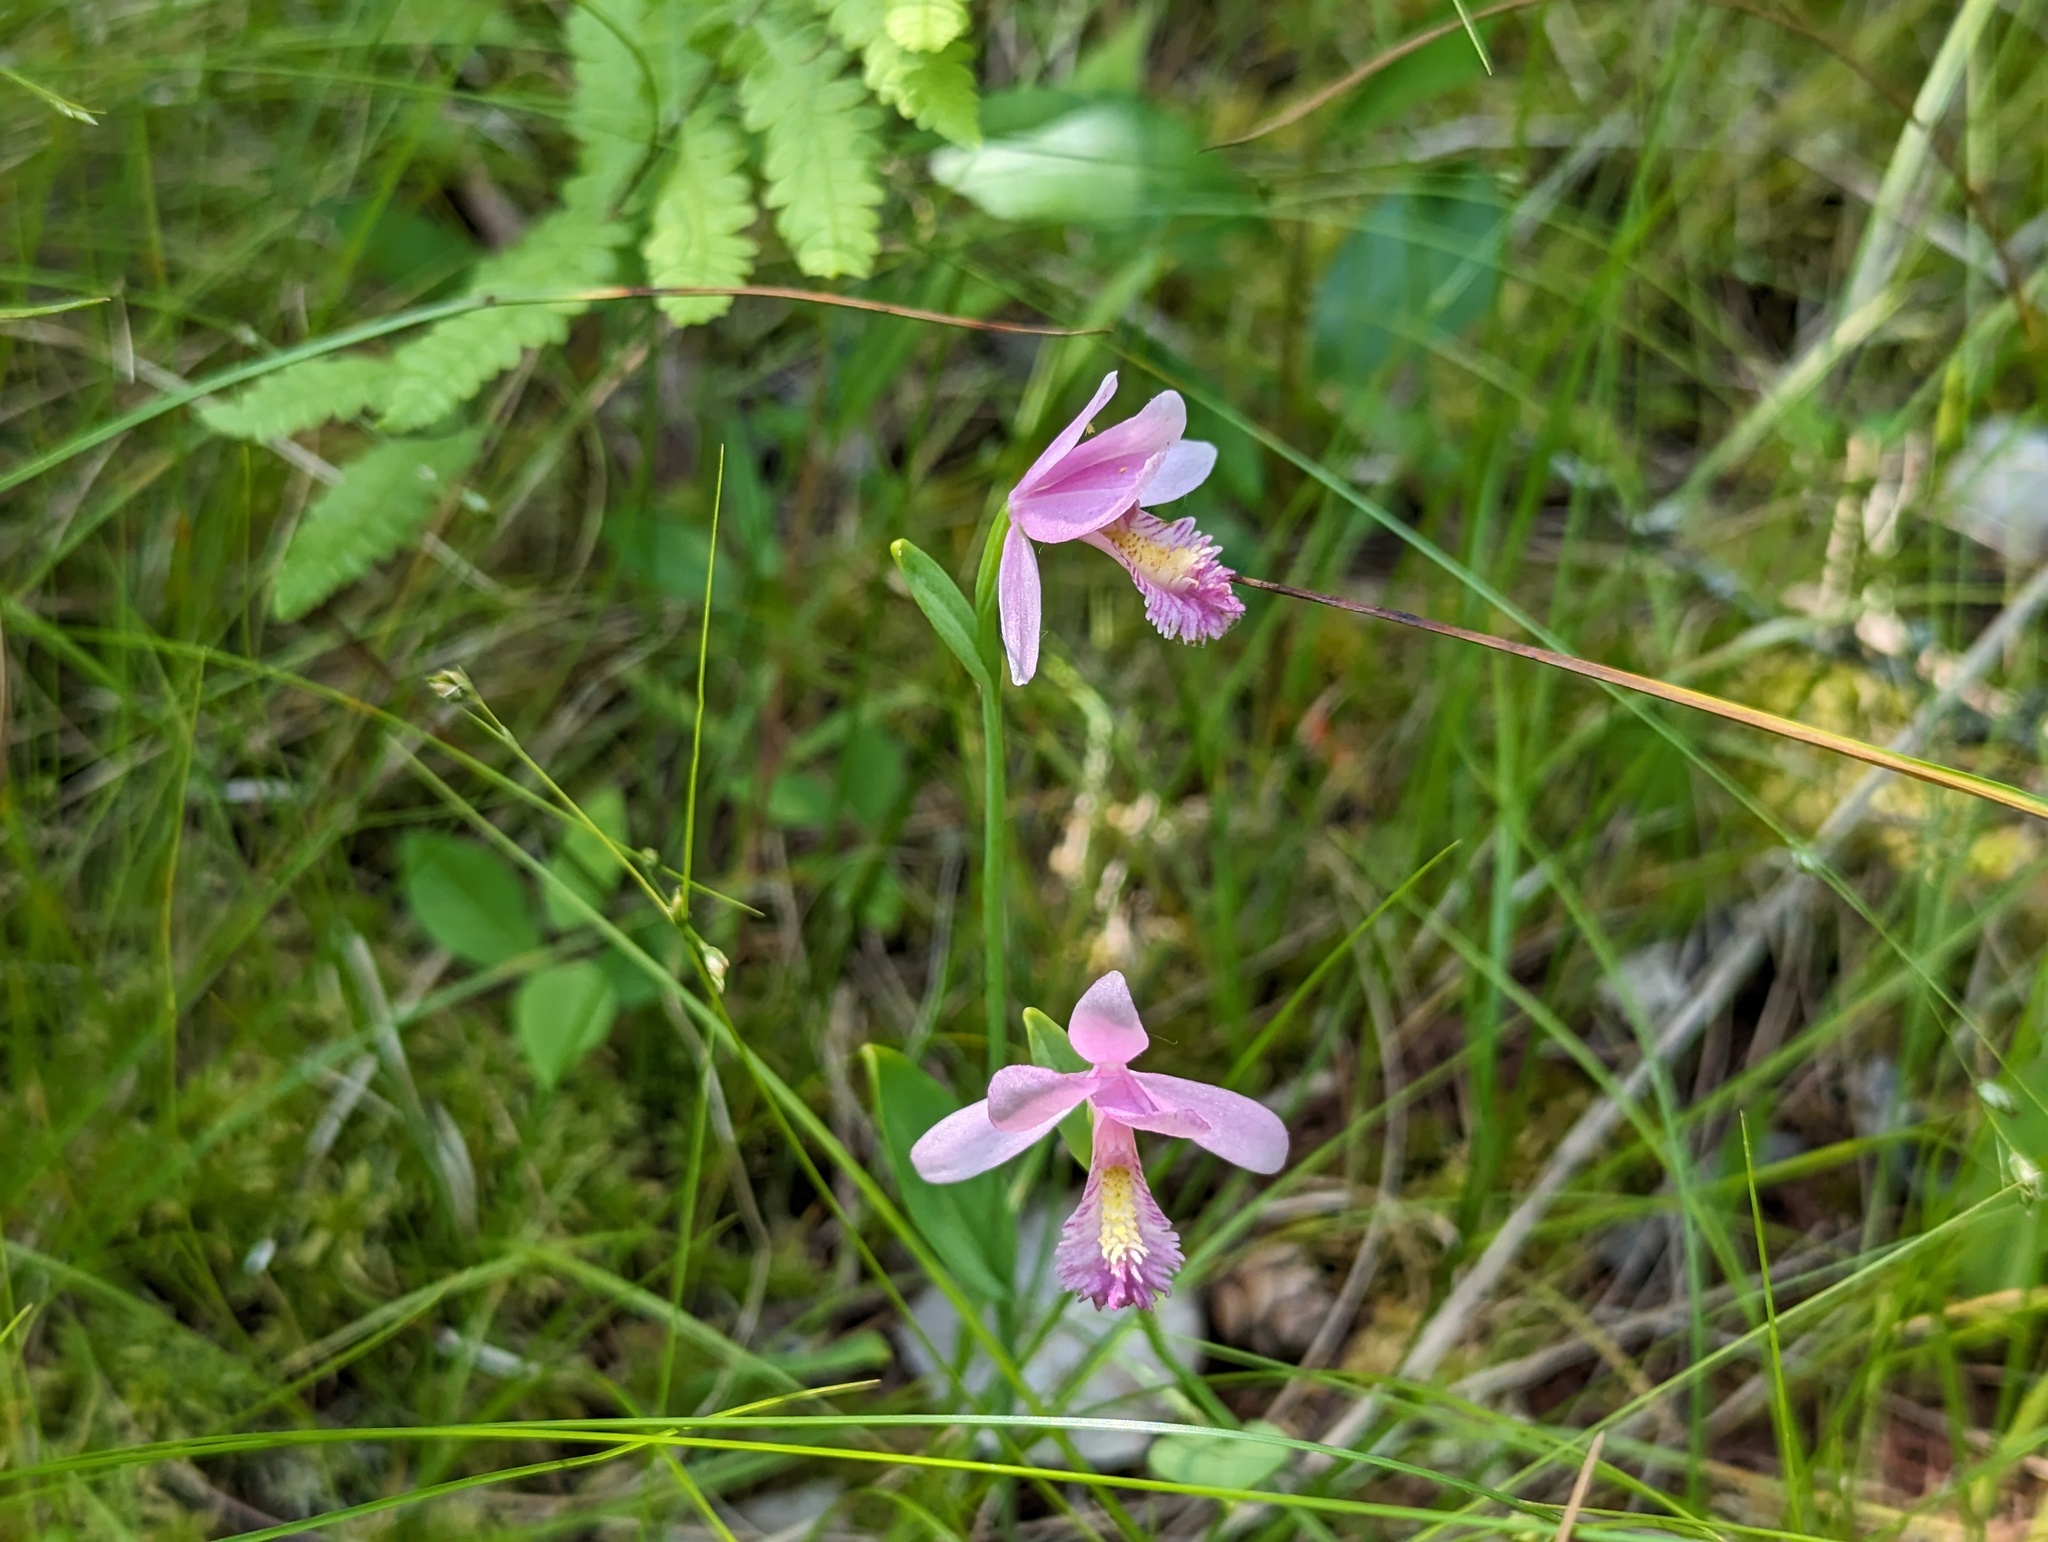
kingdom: Plantae
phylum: Tracheophyta
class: Liliopsida
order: Asparagales
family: Orchidaceae
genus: Pogonia
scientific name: Pogonia ophioglossoides
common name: Rose pogonia
